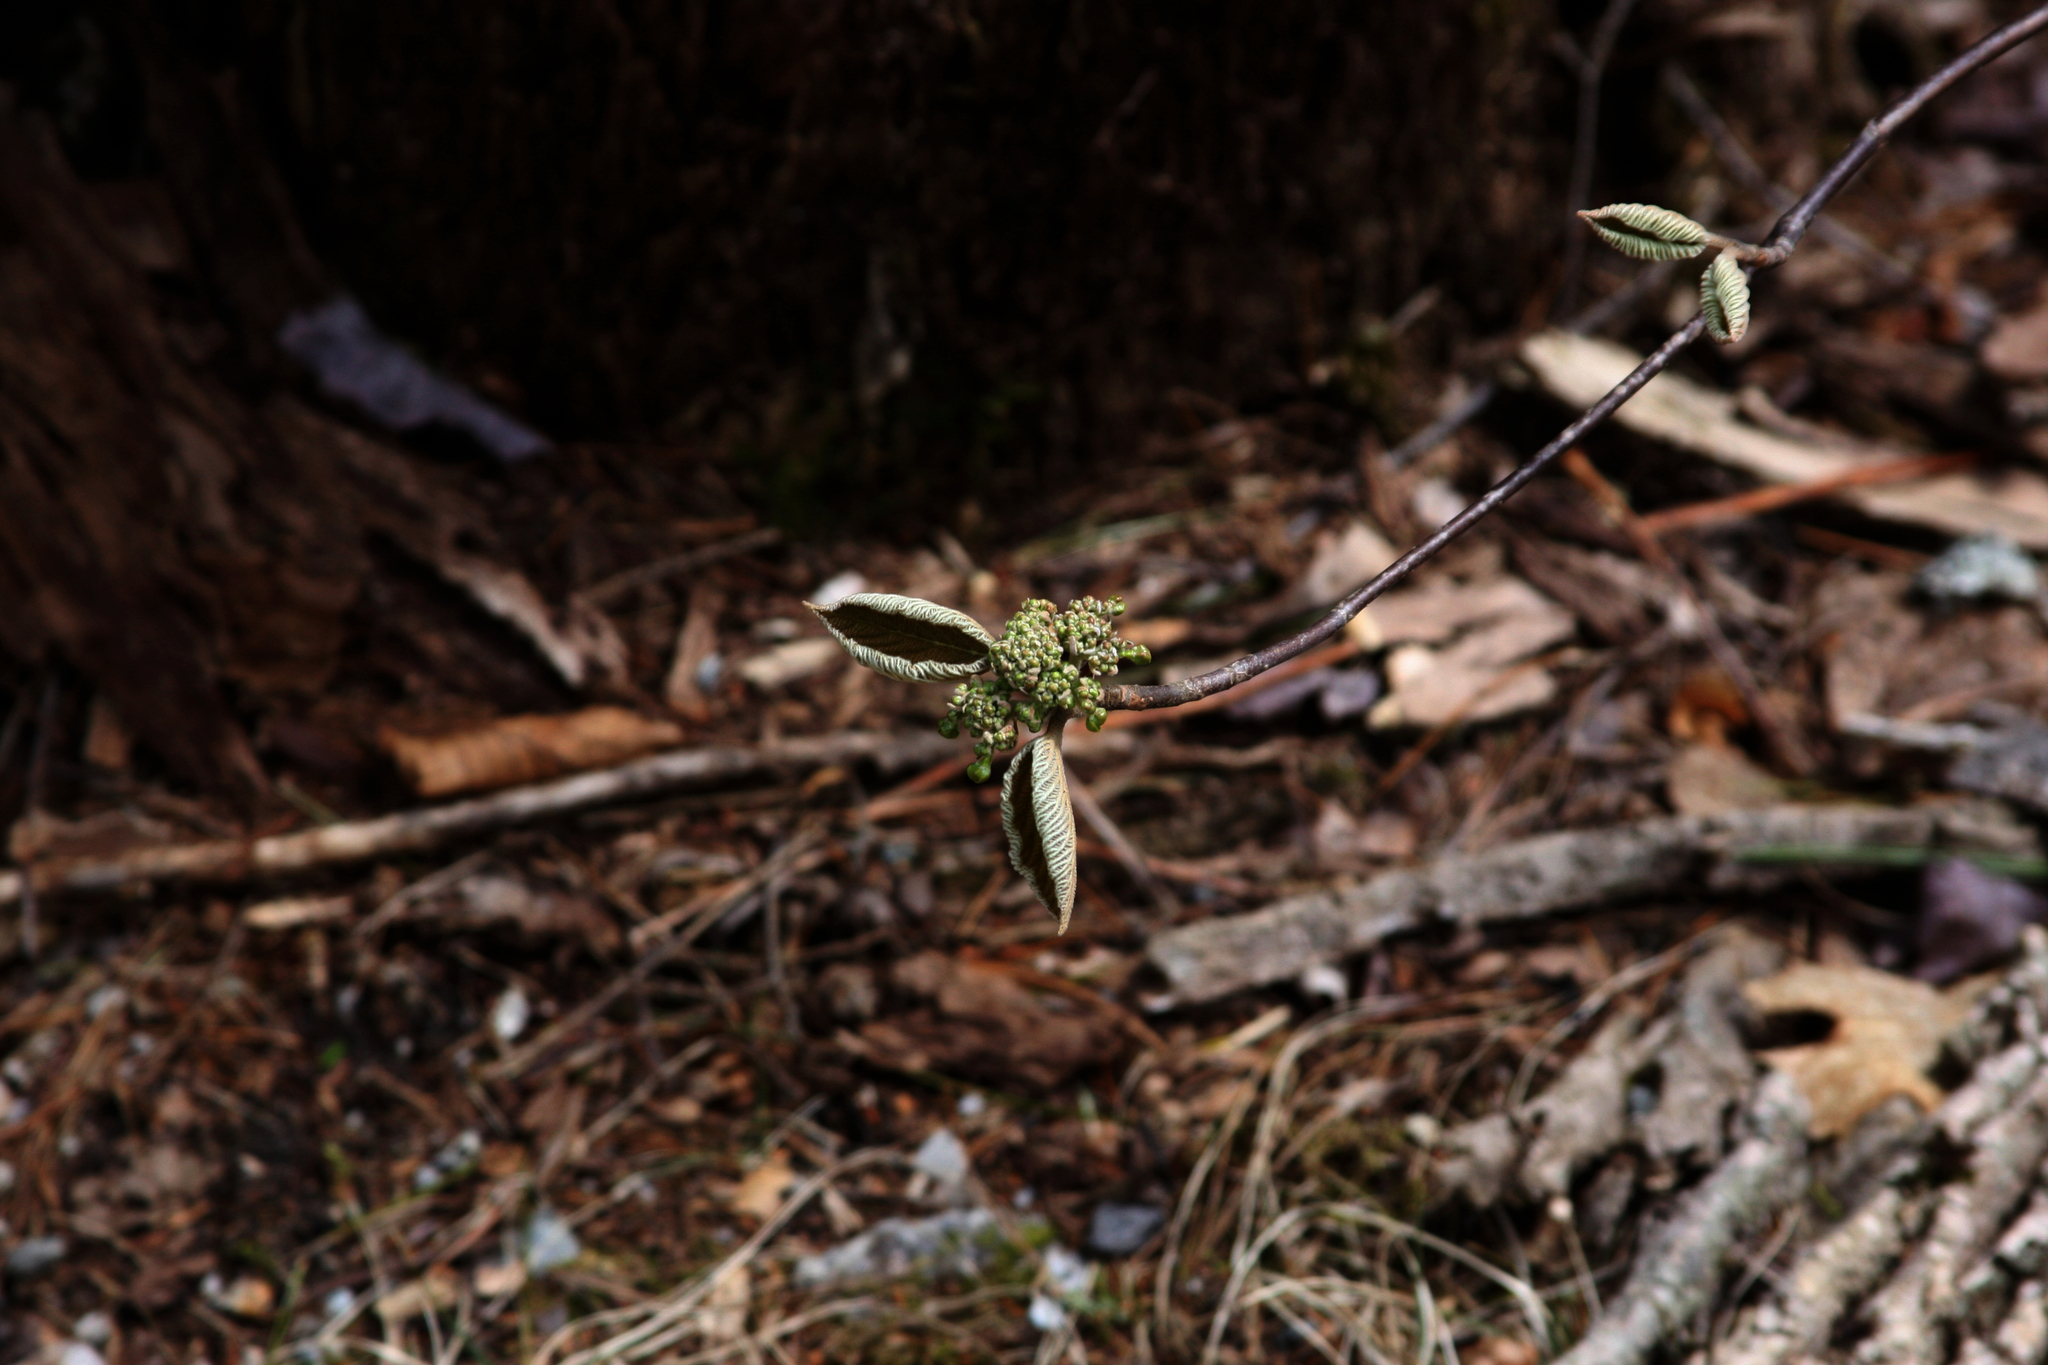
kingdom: Plantae
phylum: Tracheophyta
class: Magnoliopsida
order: Dipsacales
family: Viburnaceae
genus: Viburnum
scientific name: Viburnum lantanoides
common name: Hobblebush
